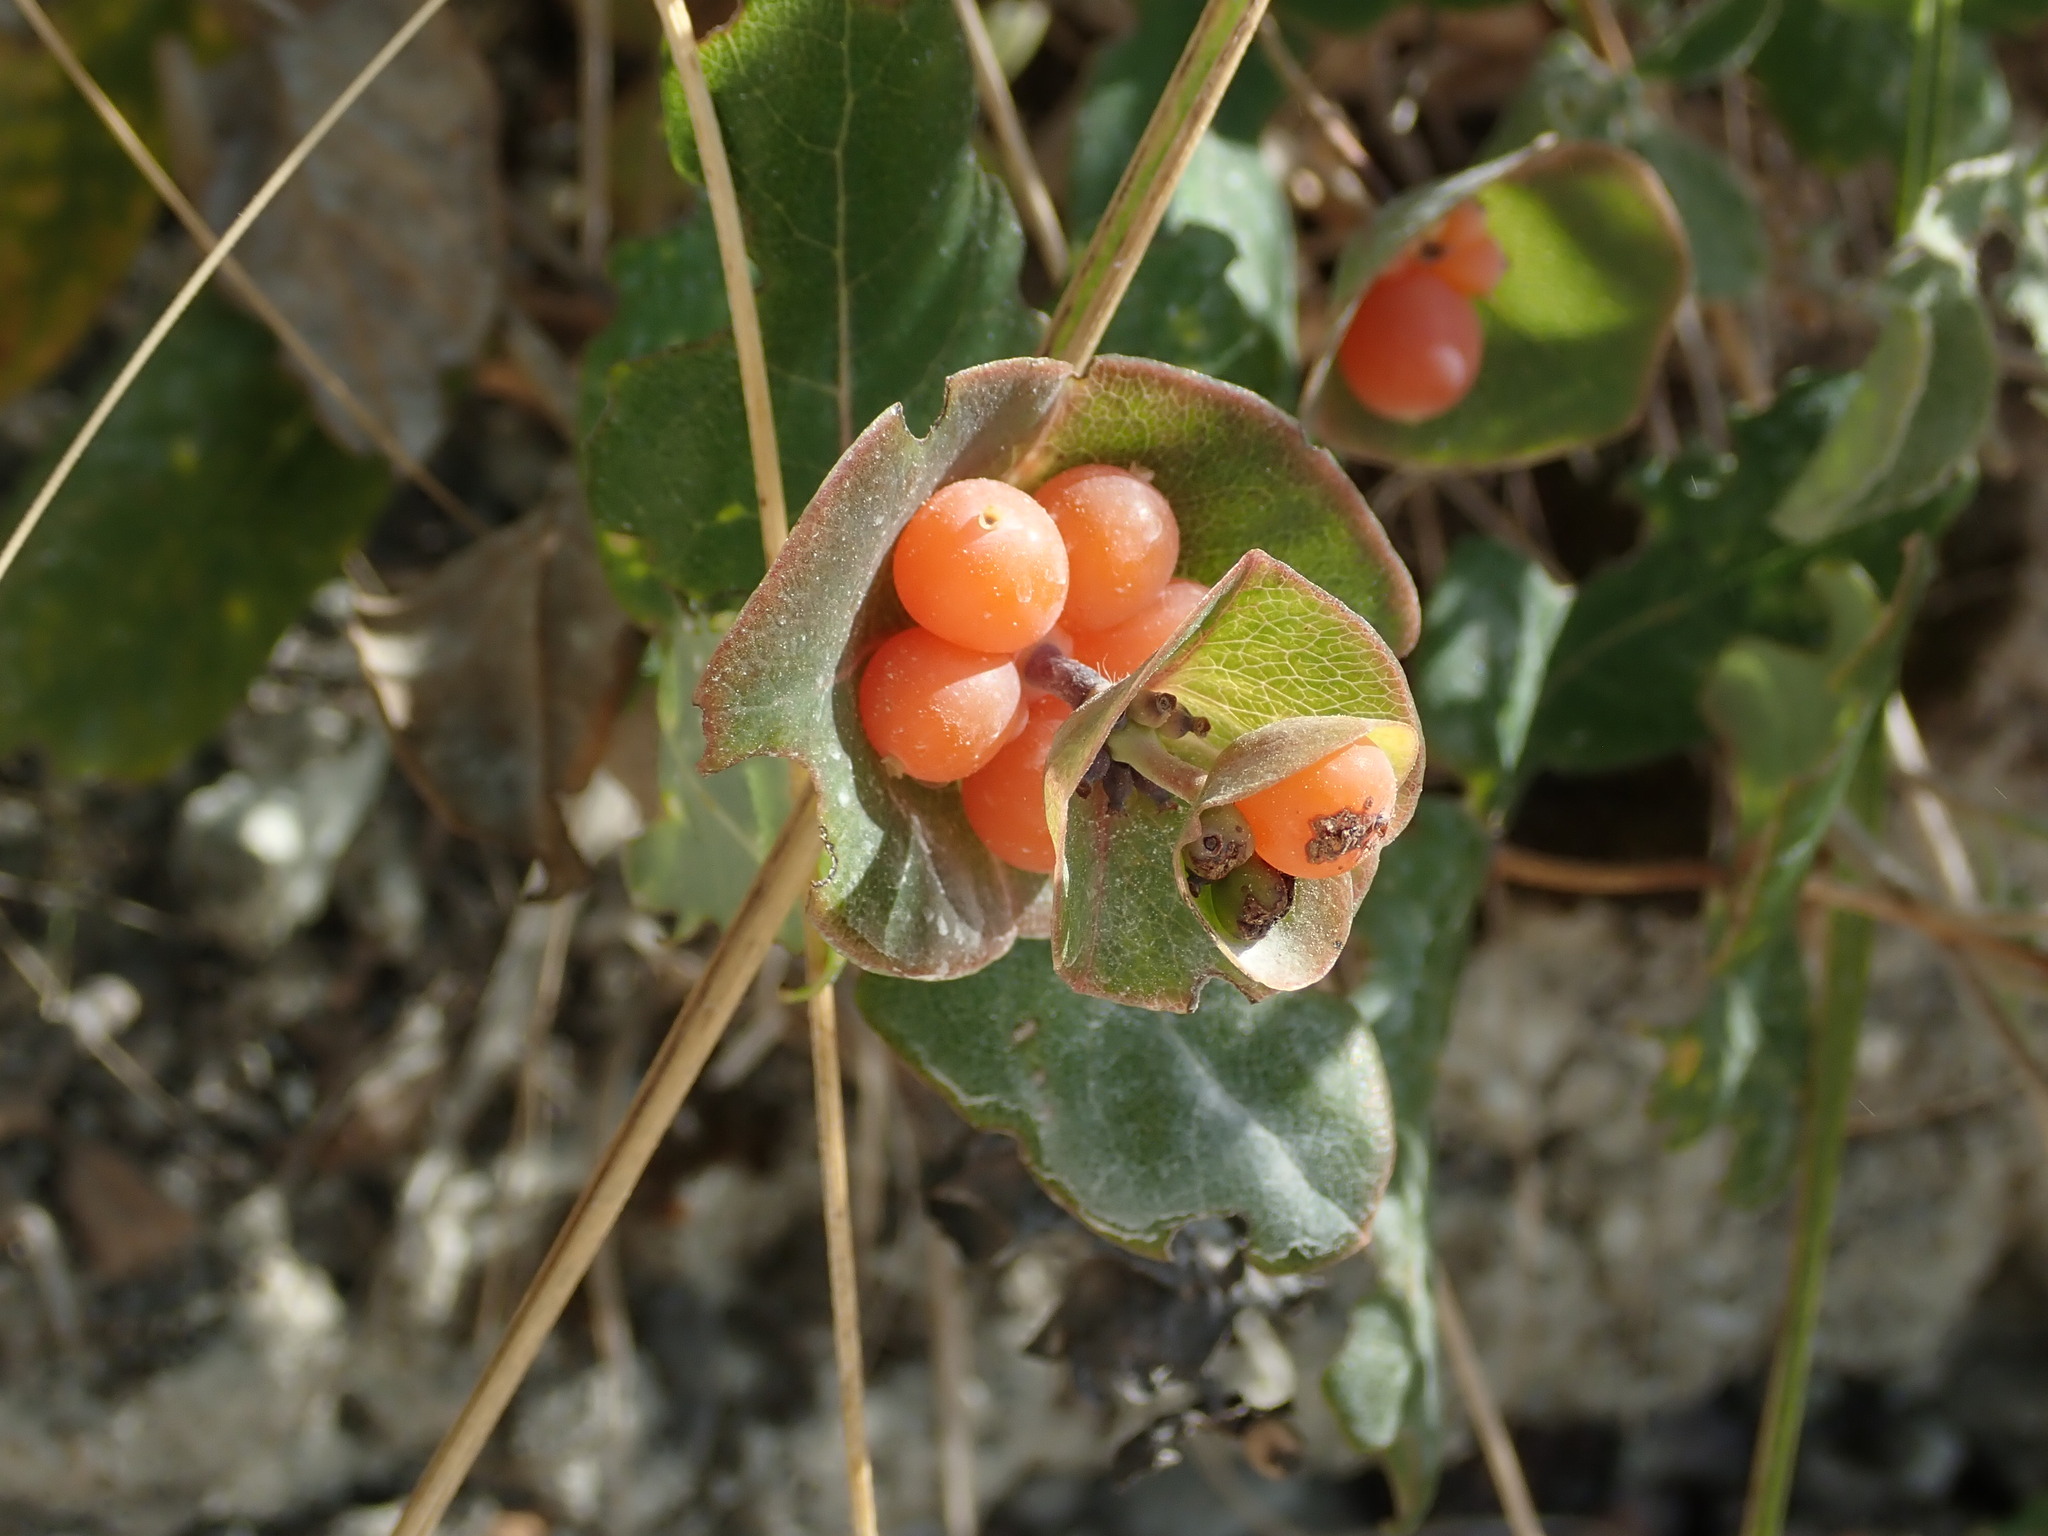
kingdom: Plantae
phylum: Tracheophyta
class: Magnoliopsida
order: Dipsacales
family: Caprifoliaceae
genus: Lonicera
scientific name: Lonicera implexa
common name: Minorca honeysuckle
